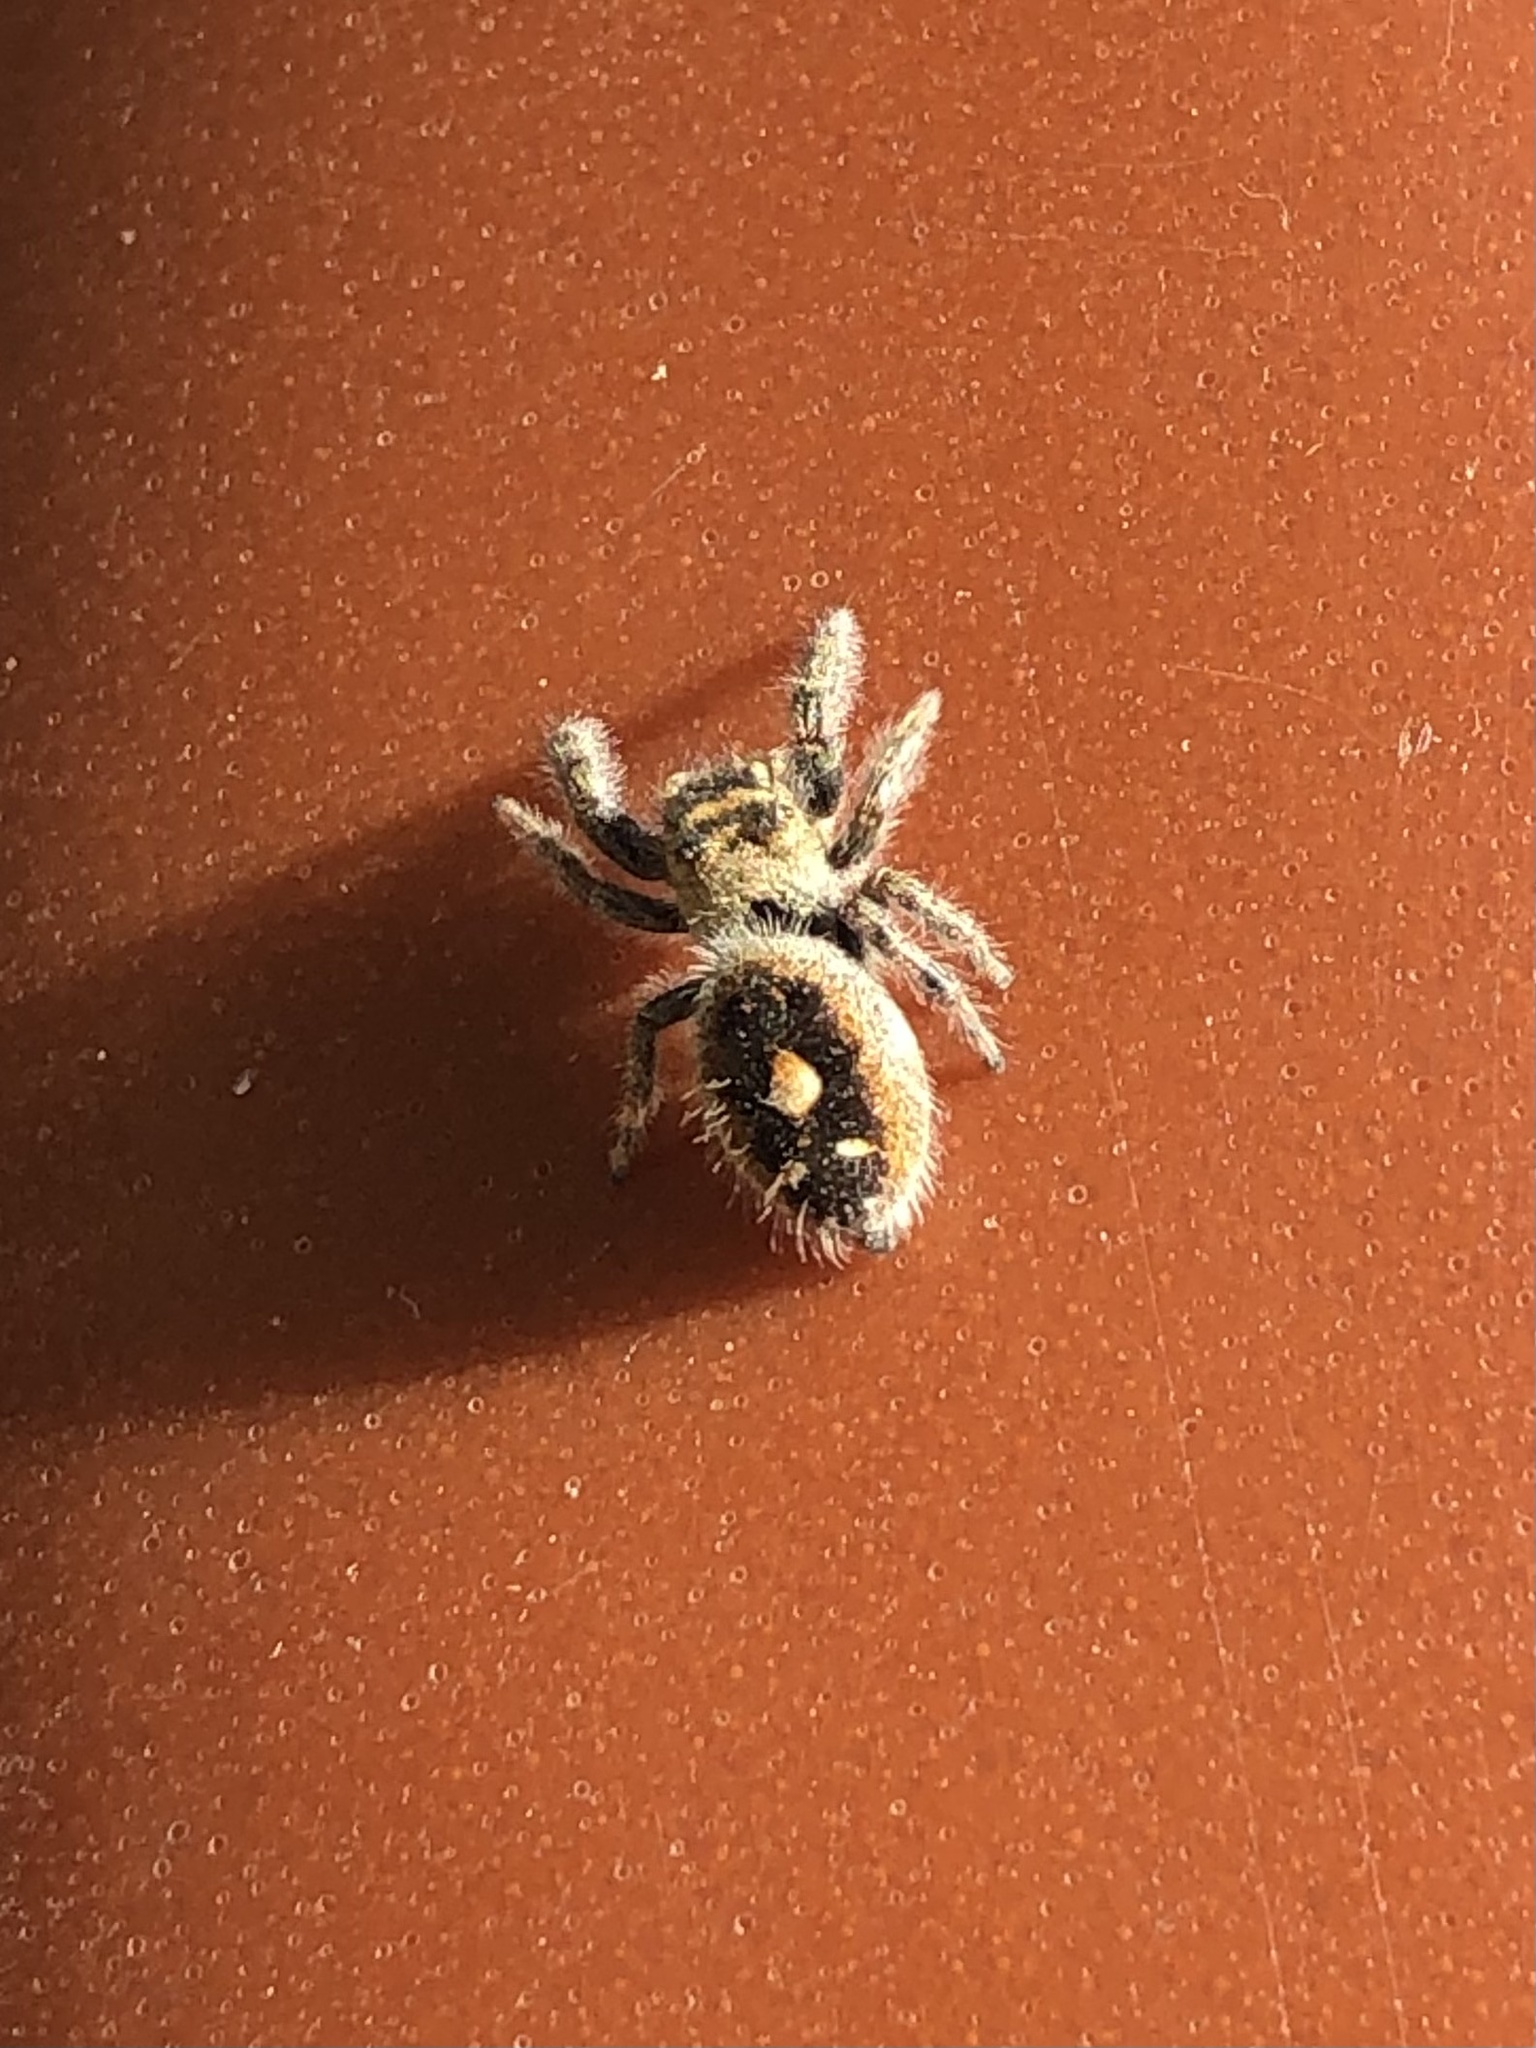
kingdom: Animalia
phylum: Arthropoda
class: Arachnida
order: Araneae
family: Salticidae
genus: Phidippus
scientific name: Phidippus audax
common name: Bold jumper
